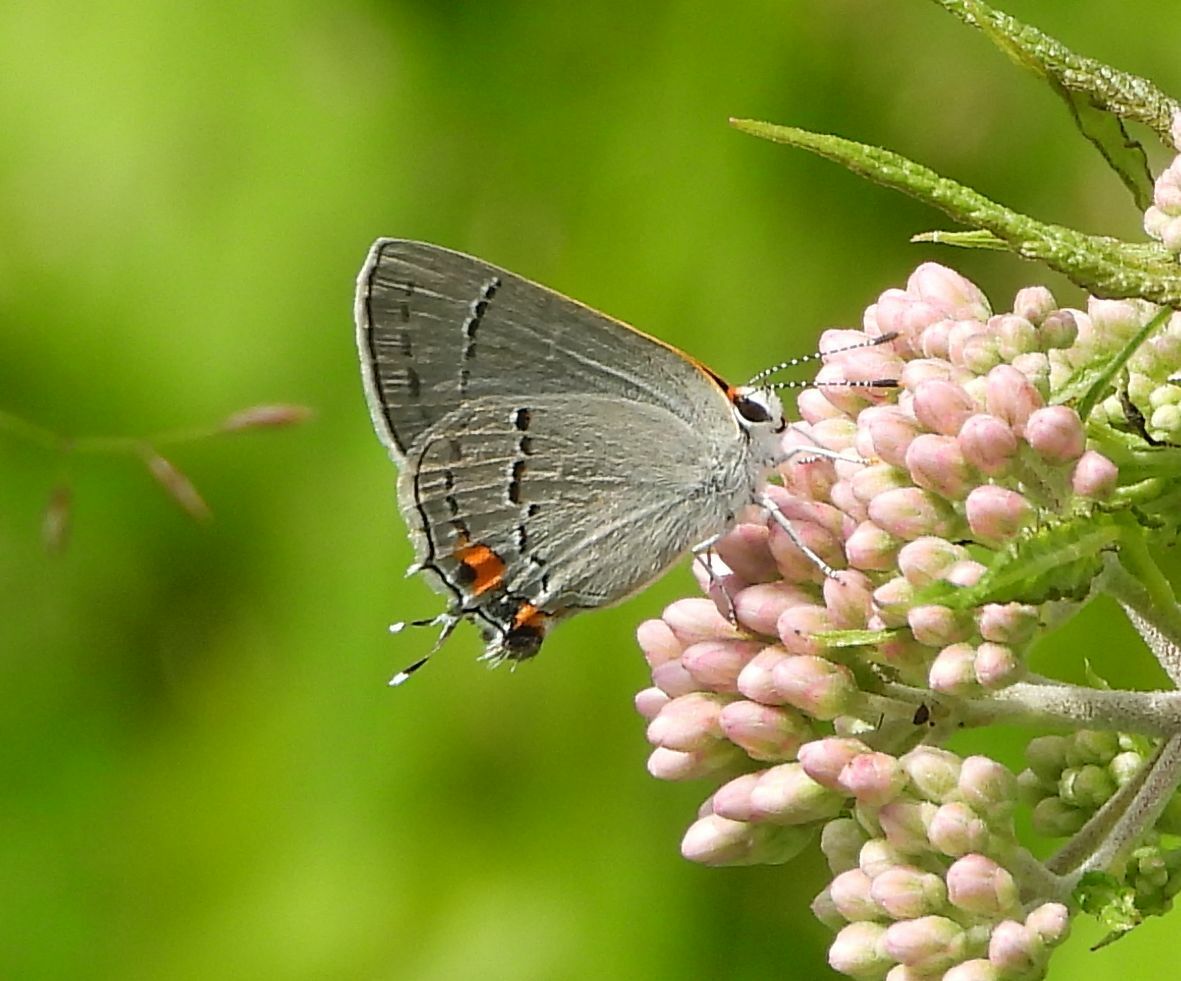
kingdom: Animalia
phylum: Arthropoda
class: Insecta
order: Lepidoptera
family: Lycaenidae
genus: Strymon
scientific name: Strymon melinus
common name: Gray hairstreak
